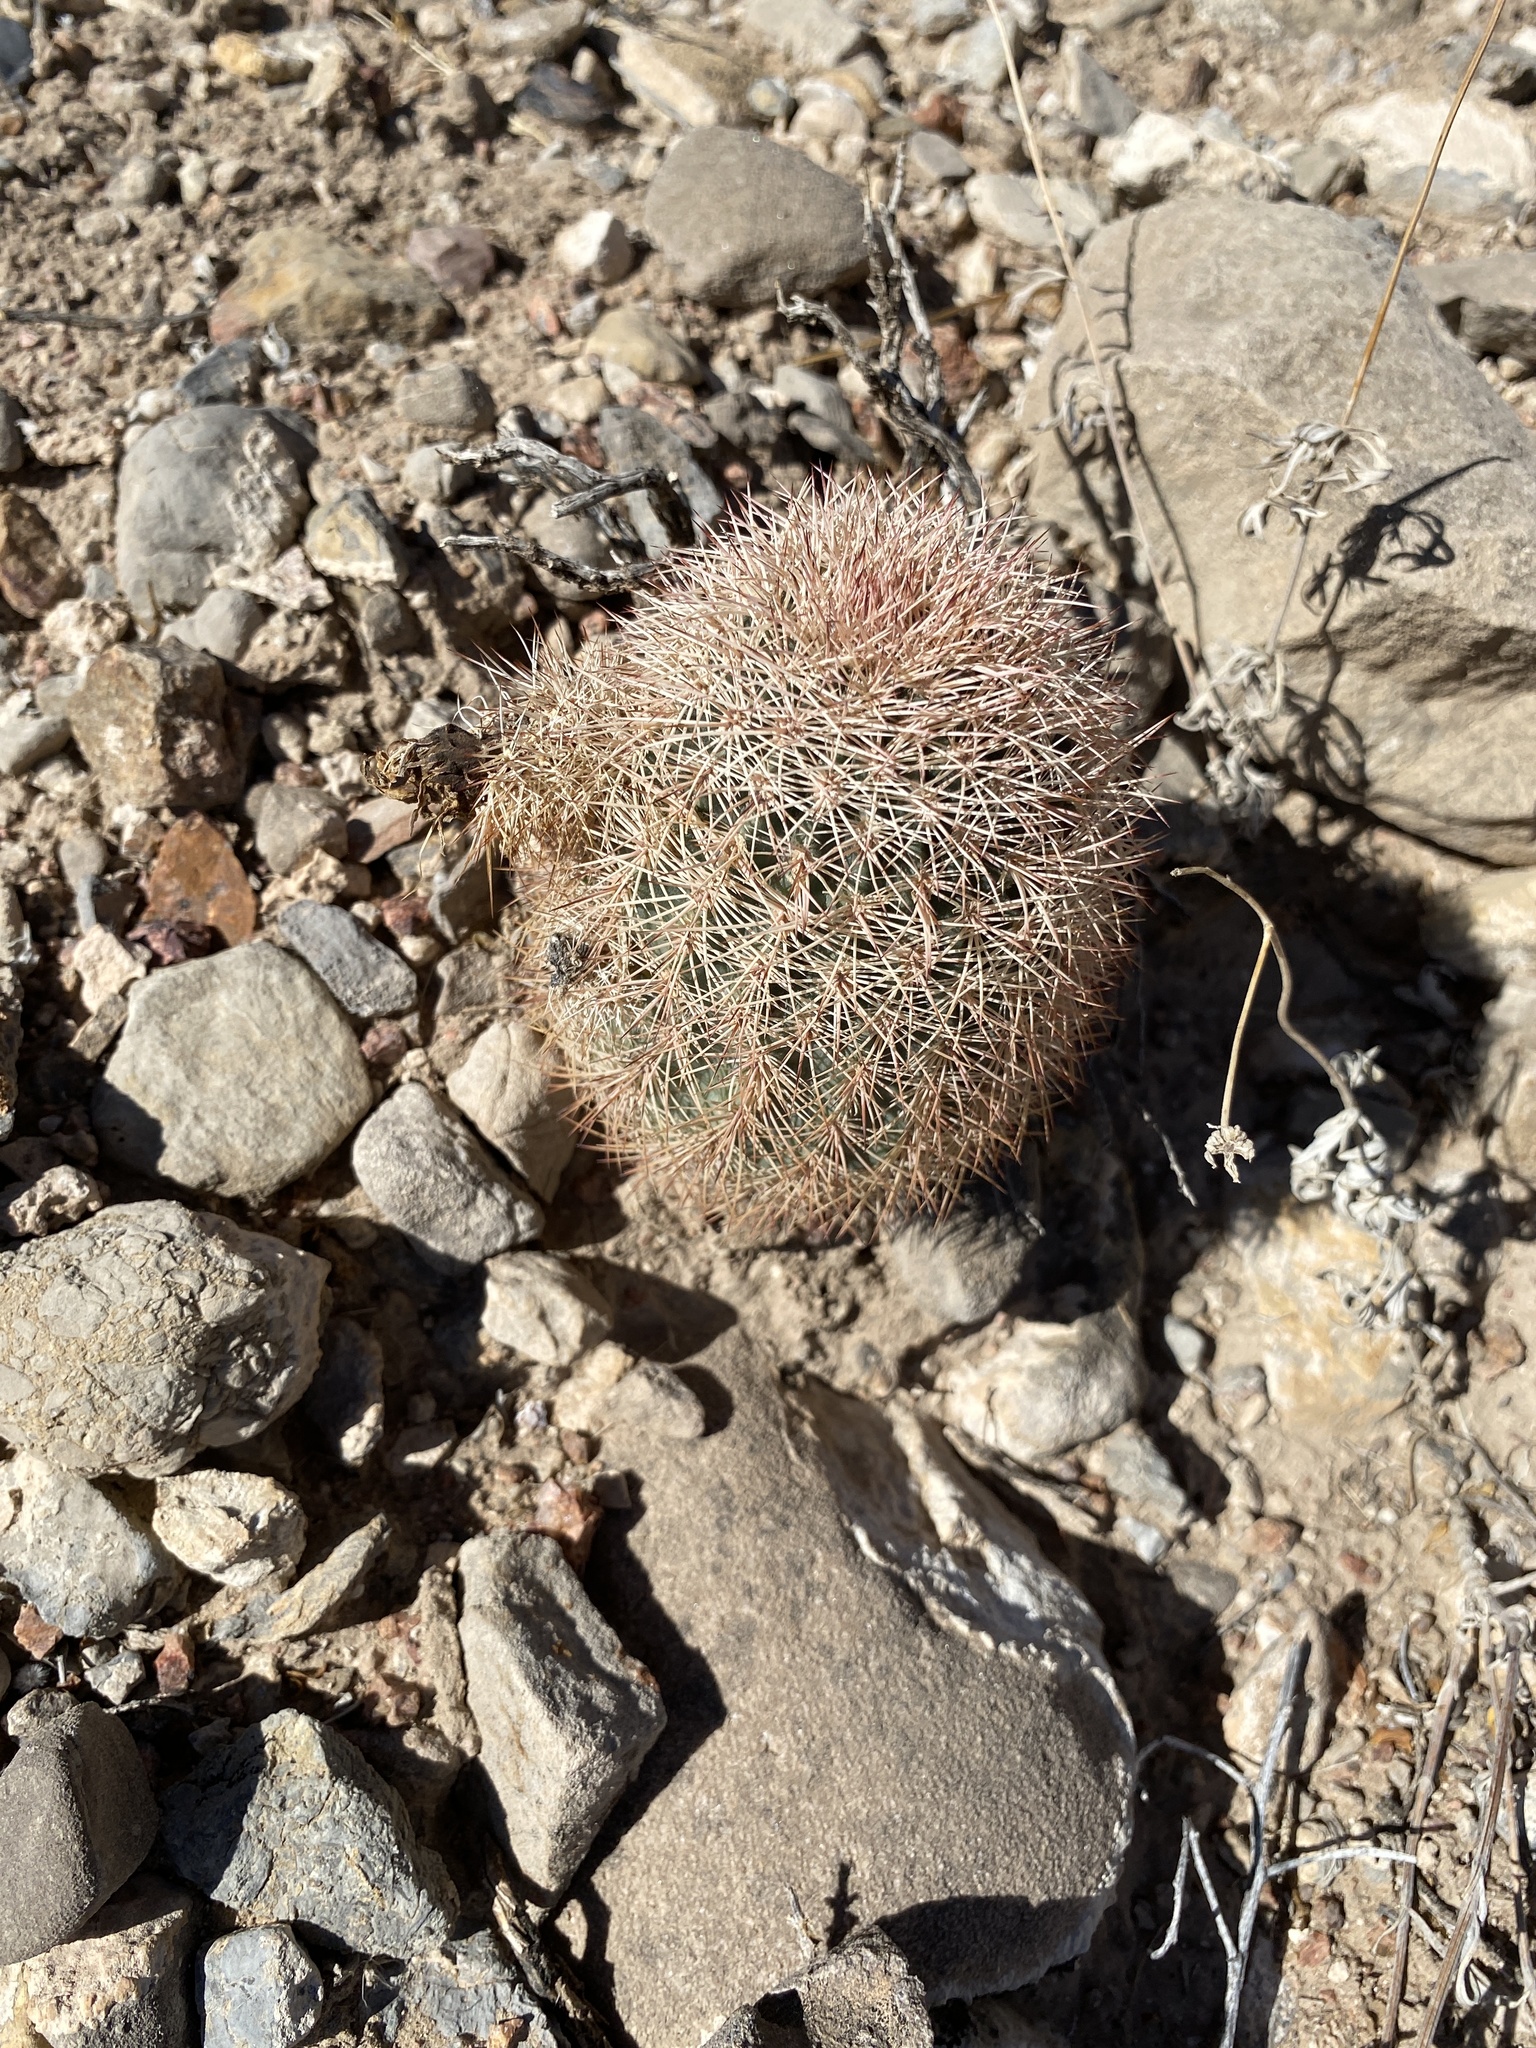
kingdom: Plantae
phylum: Tracheophyta
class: Magnoliopsida
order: Caryophyllales
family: Cactaceae
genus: Echinocereus
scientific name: Echinocereus dasyacanthus
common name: Spiny hedgehog cactus
